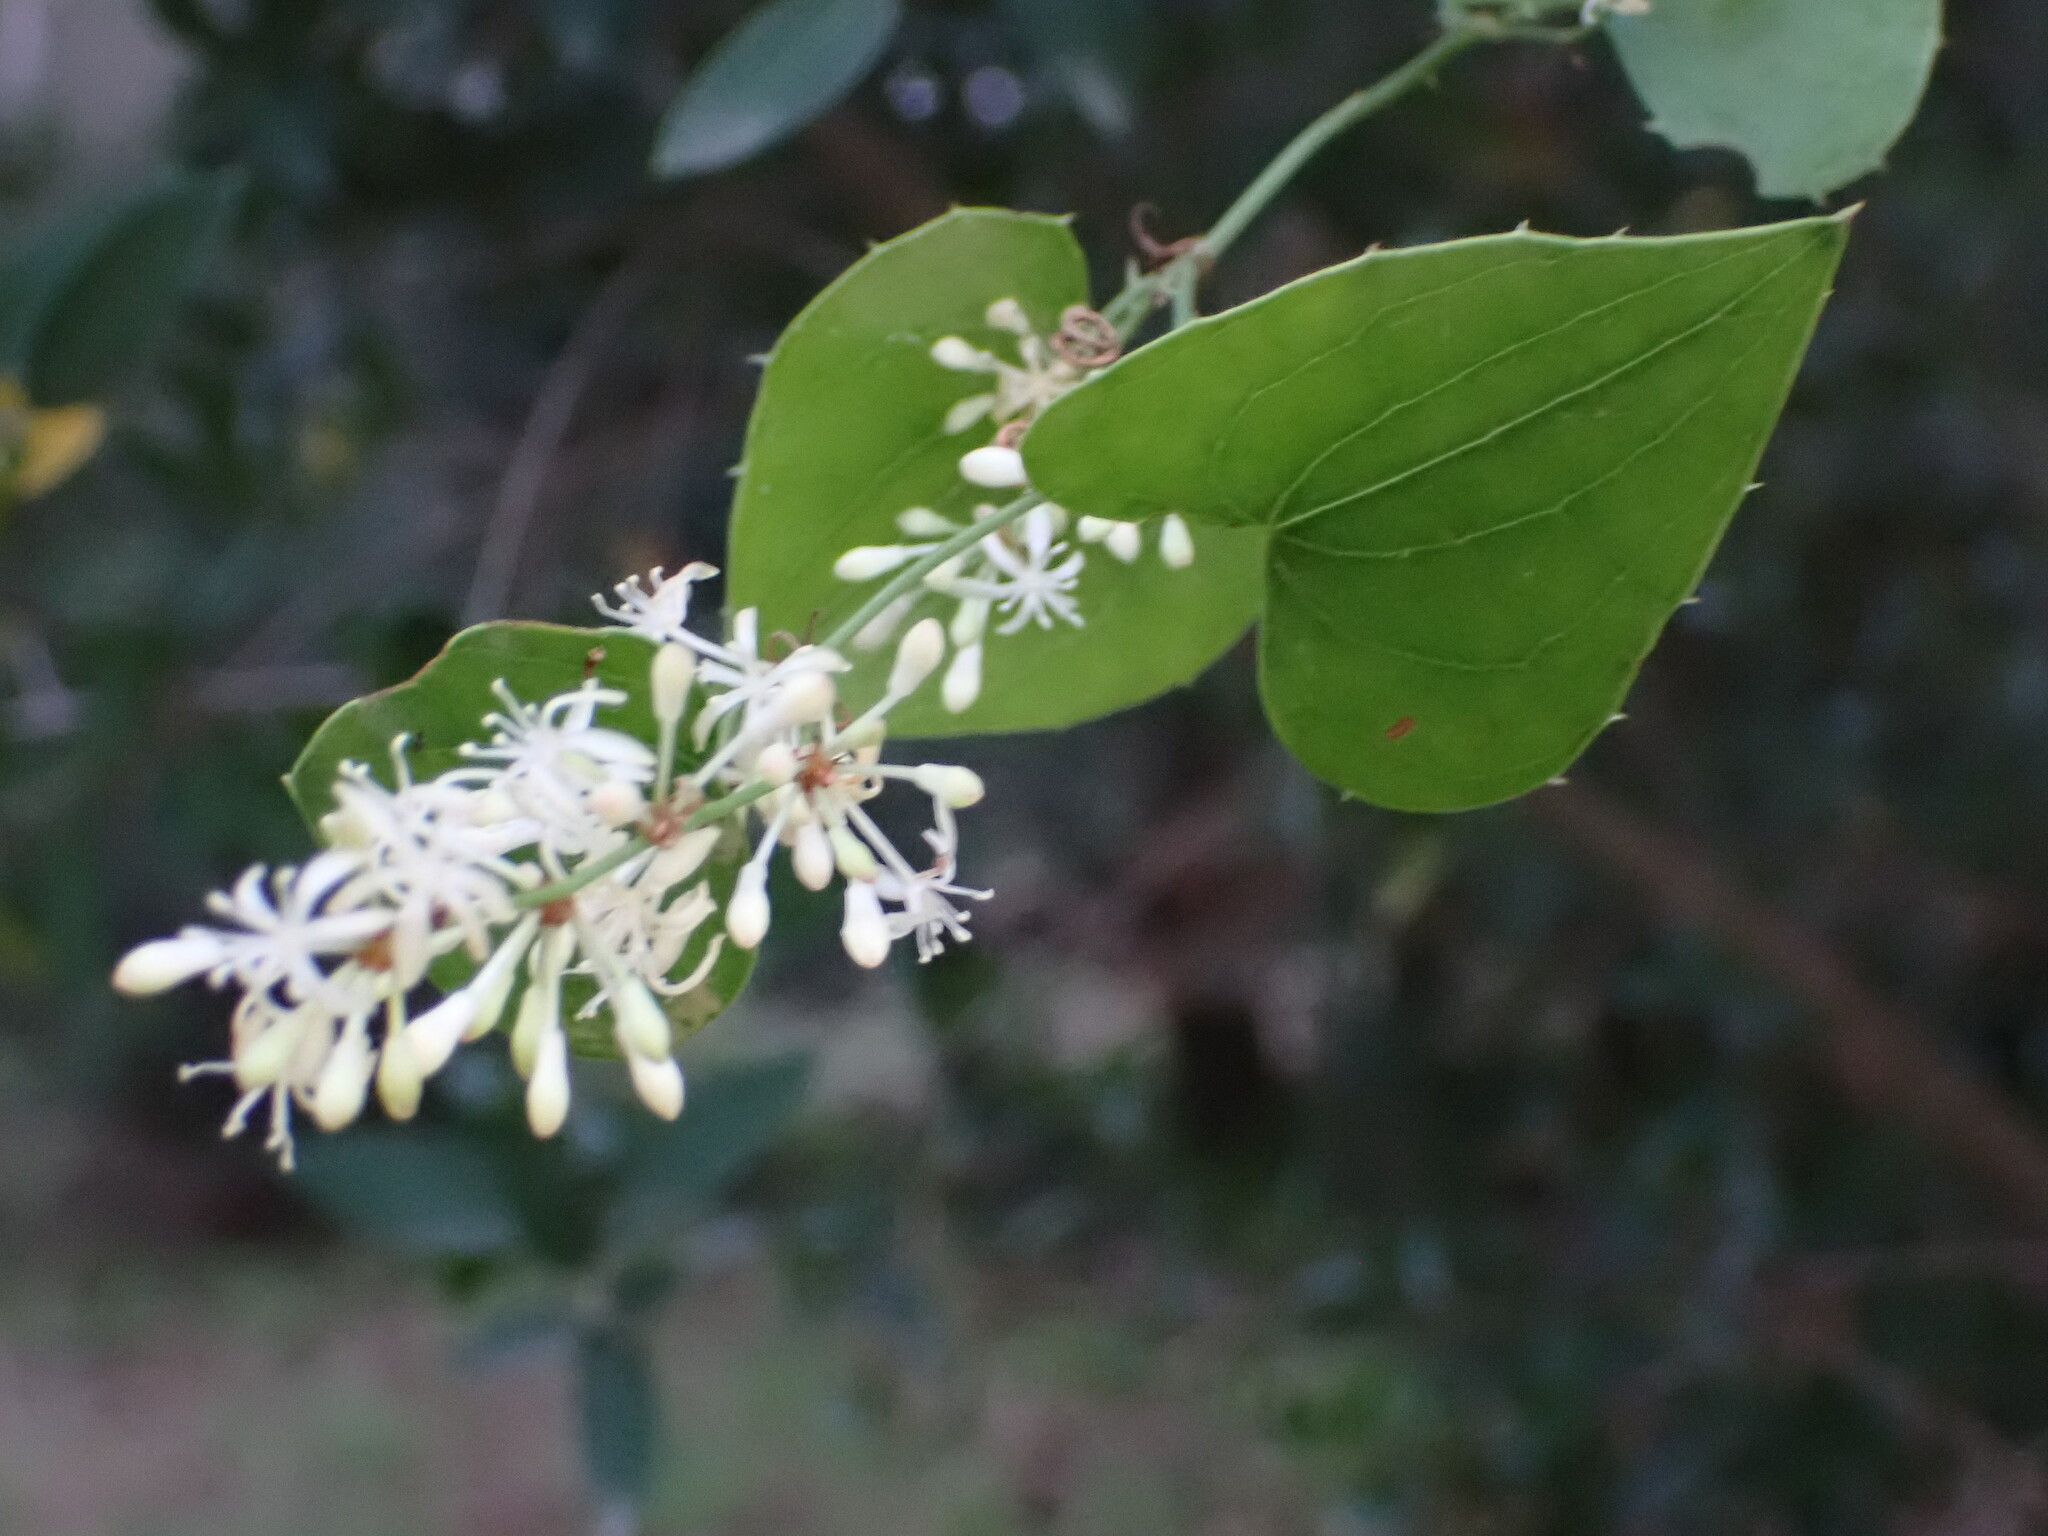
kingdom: Plantae
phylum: Tracheophyta
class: Liliopsida
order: Liliales
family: Smilacaceae
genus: Smilax
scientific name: Smilax aspera
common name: Common smilax
